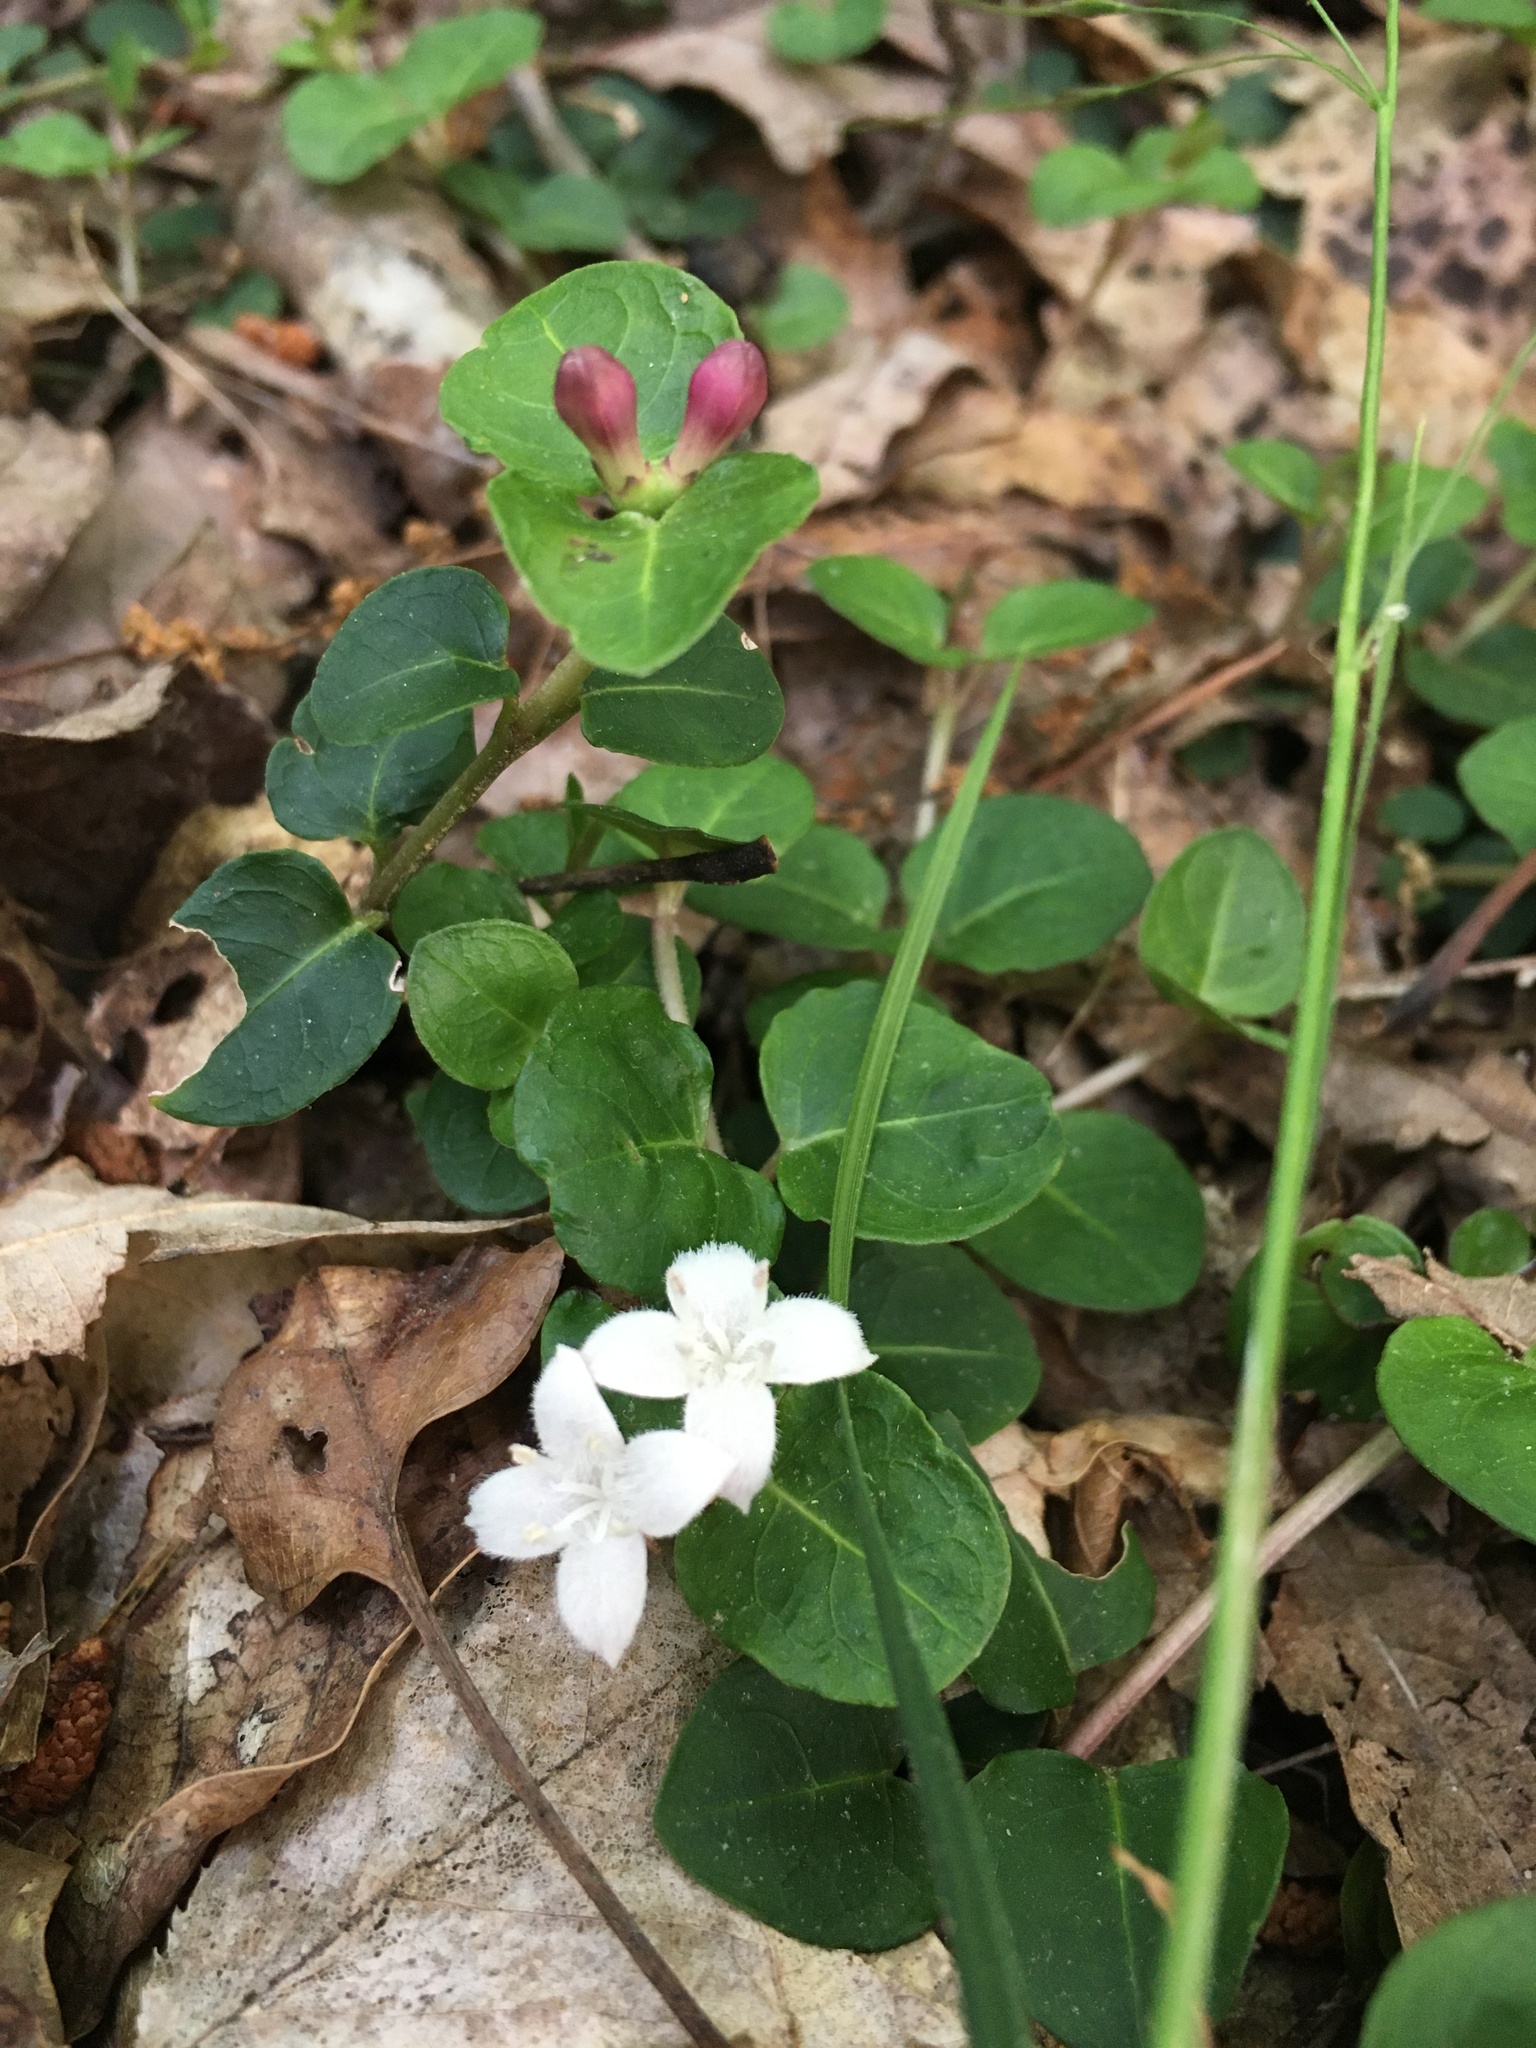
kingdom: Plantae
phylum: Tracheophyta
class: Magnoliopsida
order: Gentianales
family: Rubiaceae
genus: Mitchella
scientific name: Mitchella repens
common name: Partridge-berry
